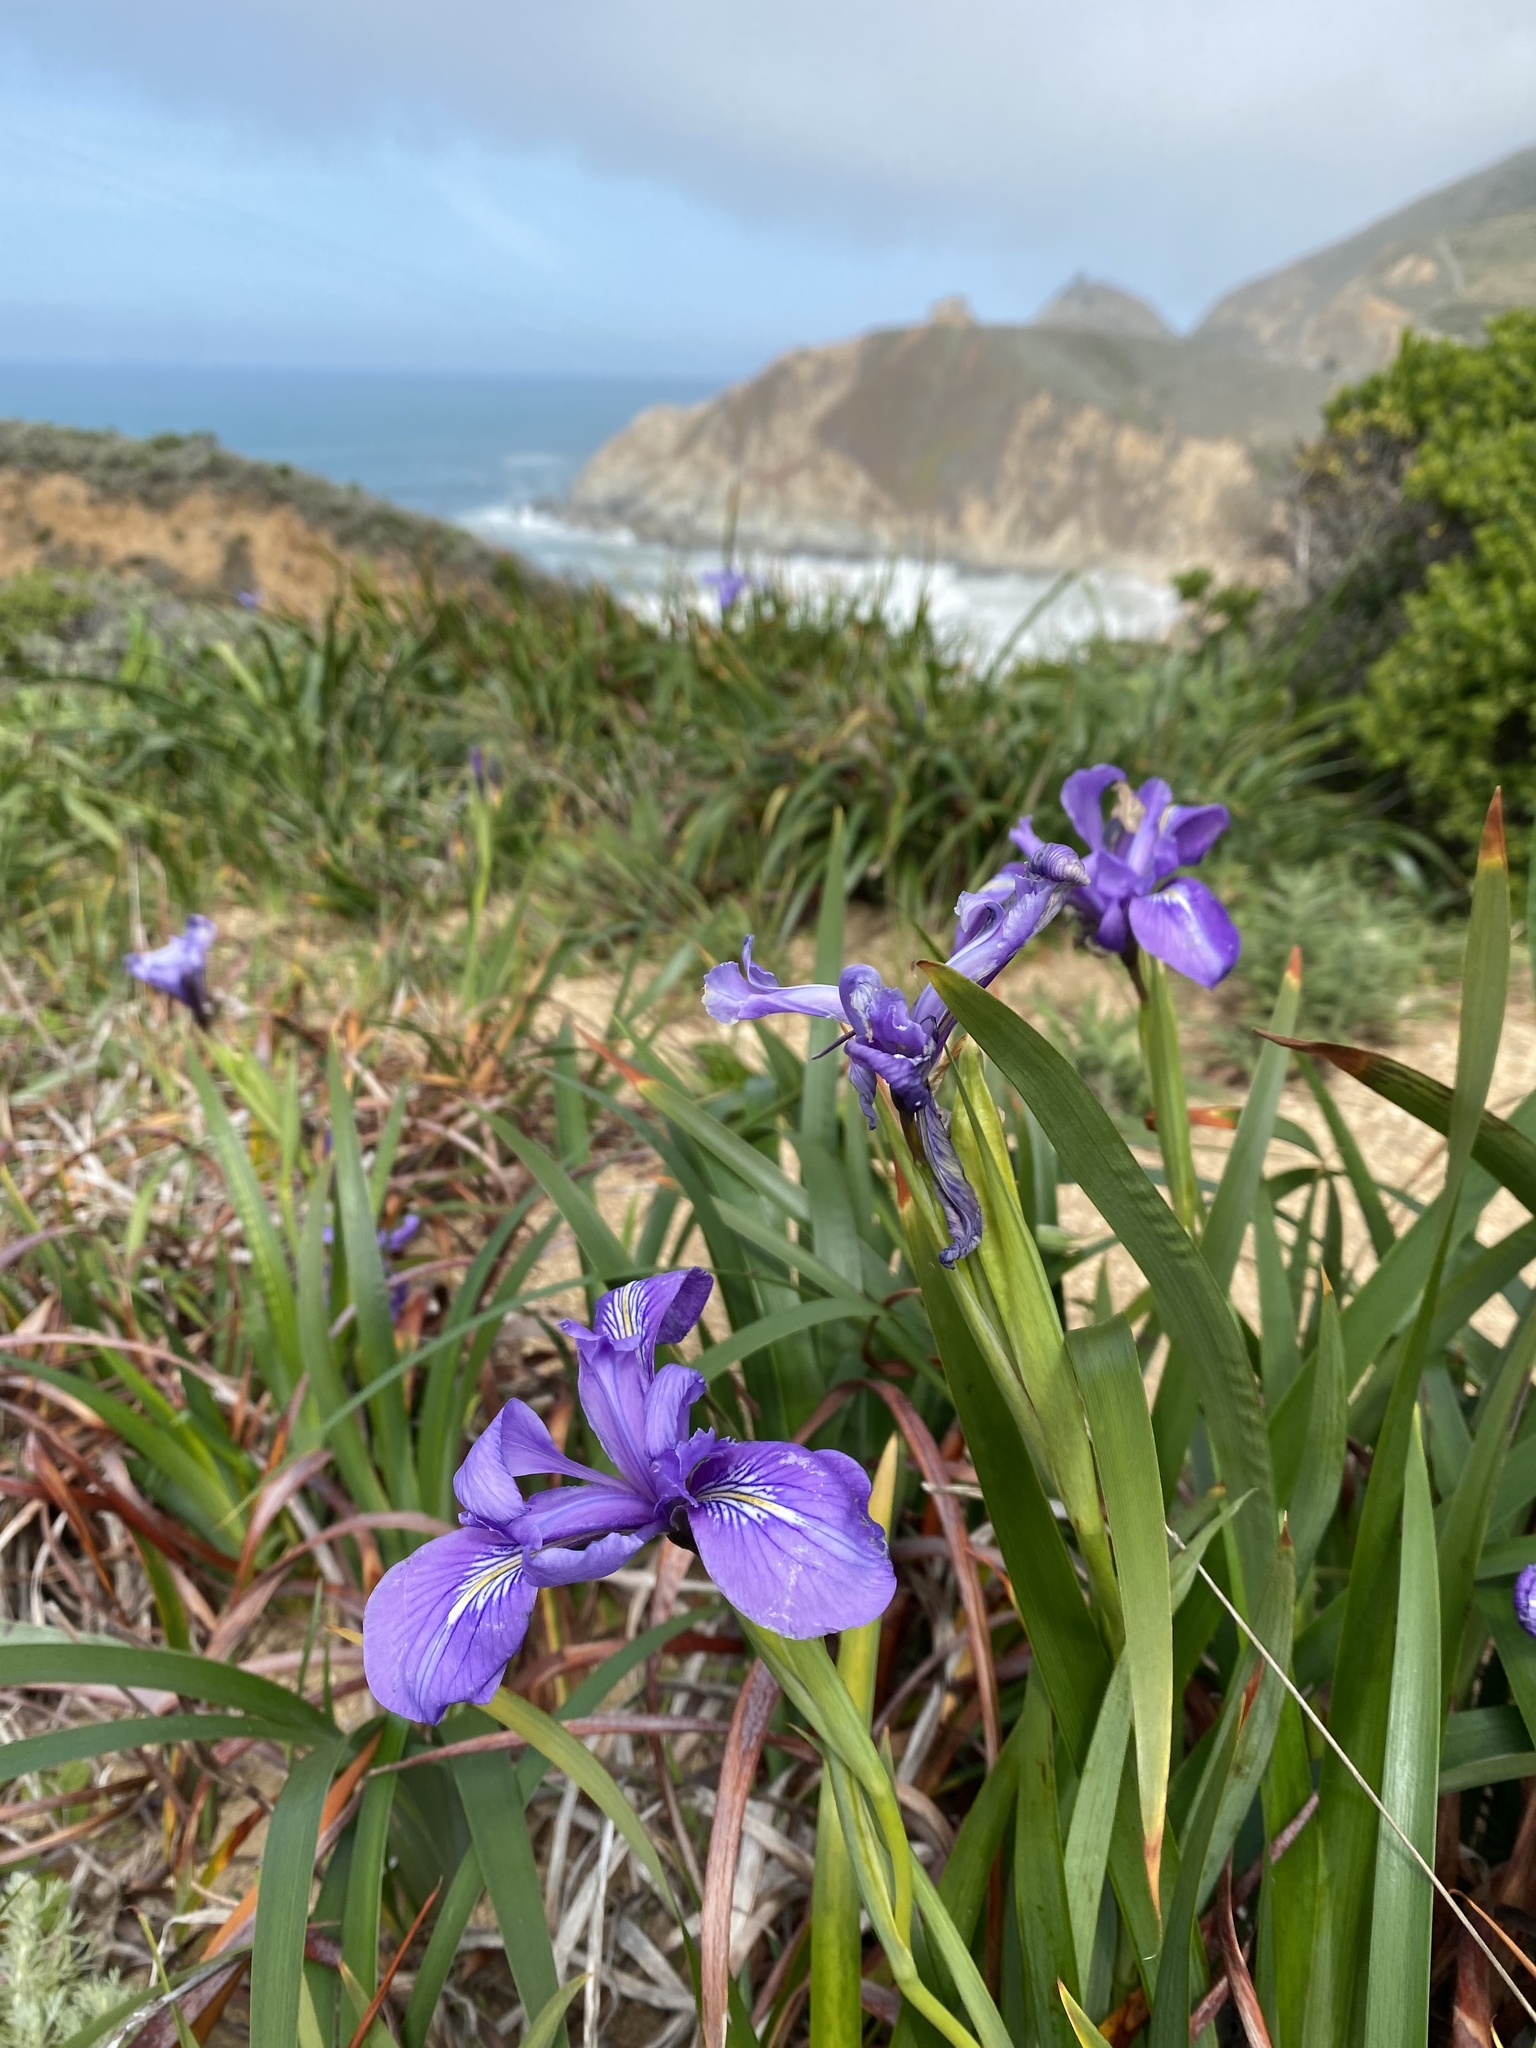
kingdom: Plantae
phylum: Tracheophyta
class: Liliopsida
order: Asparagales
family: Iridaceae
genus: Iris
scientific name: Iris douglasiana
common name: Marin iris
